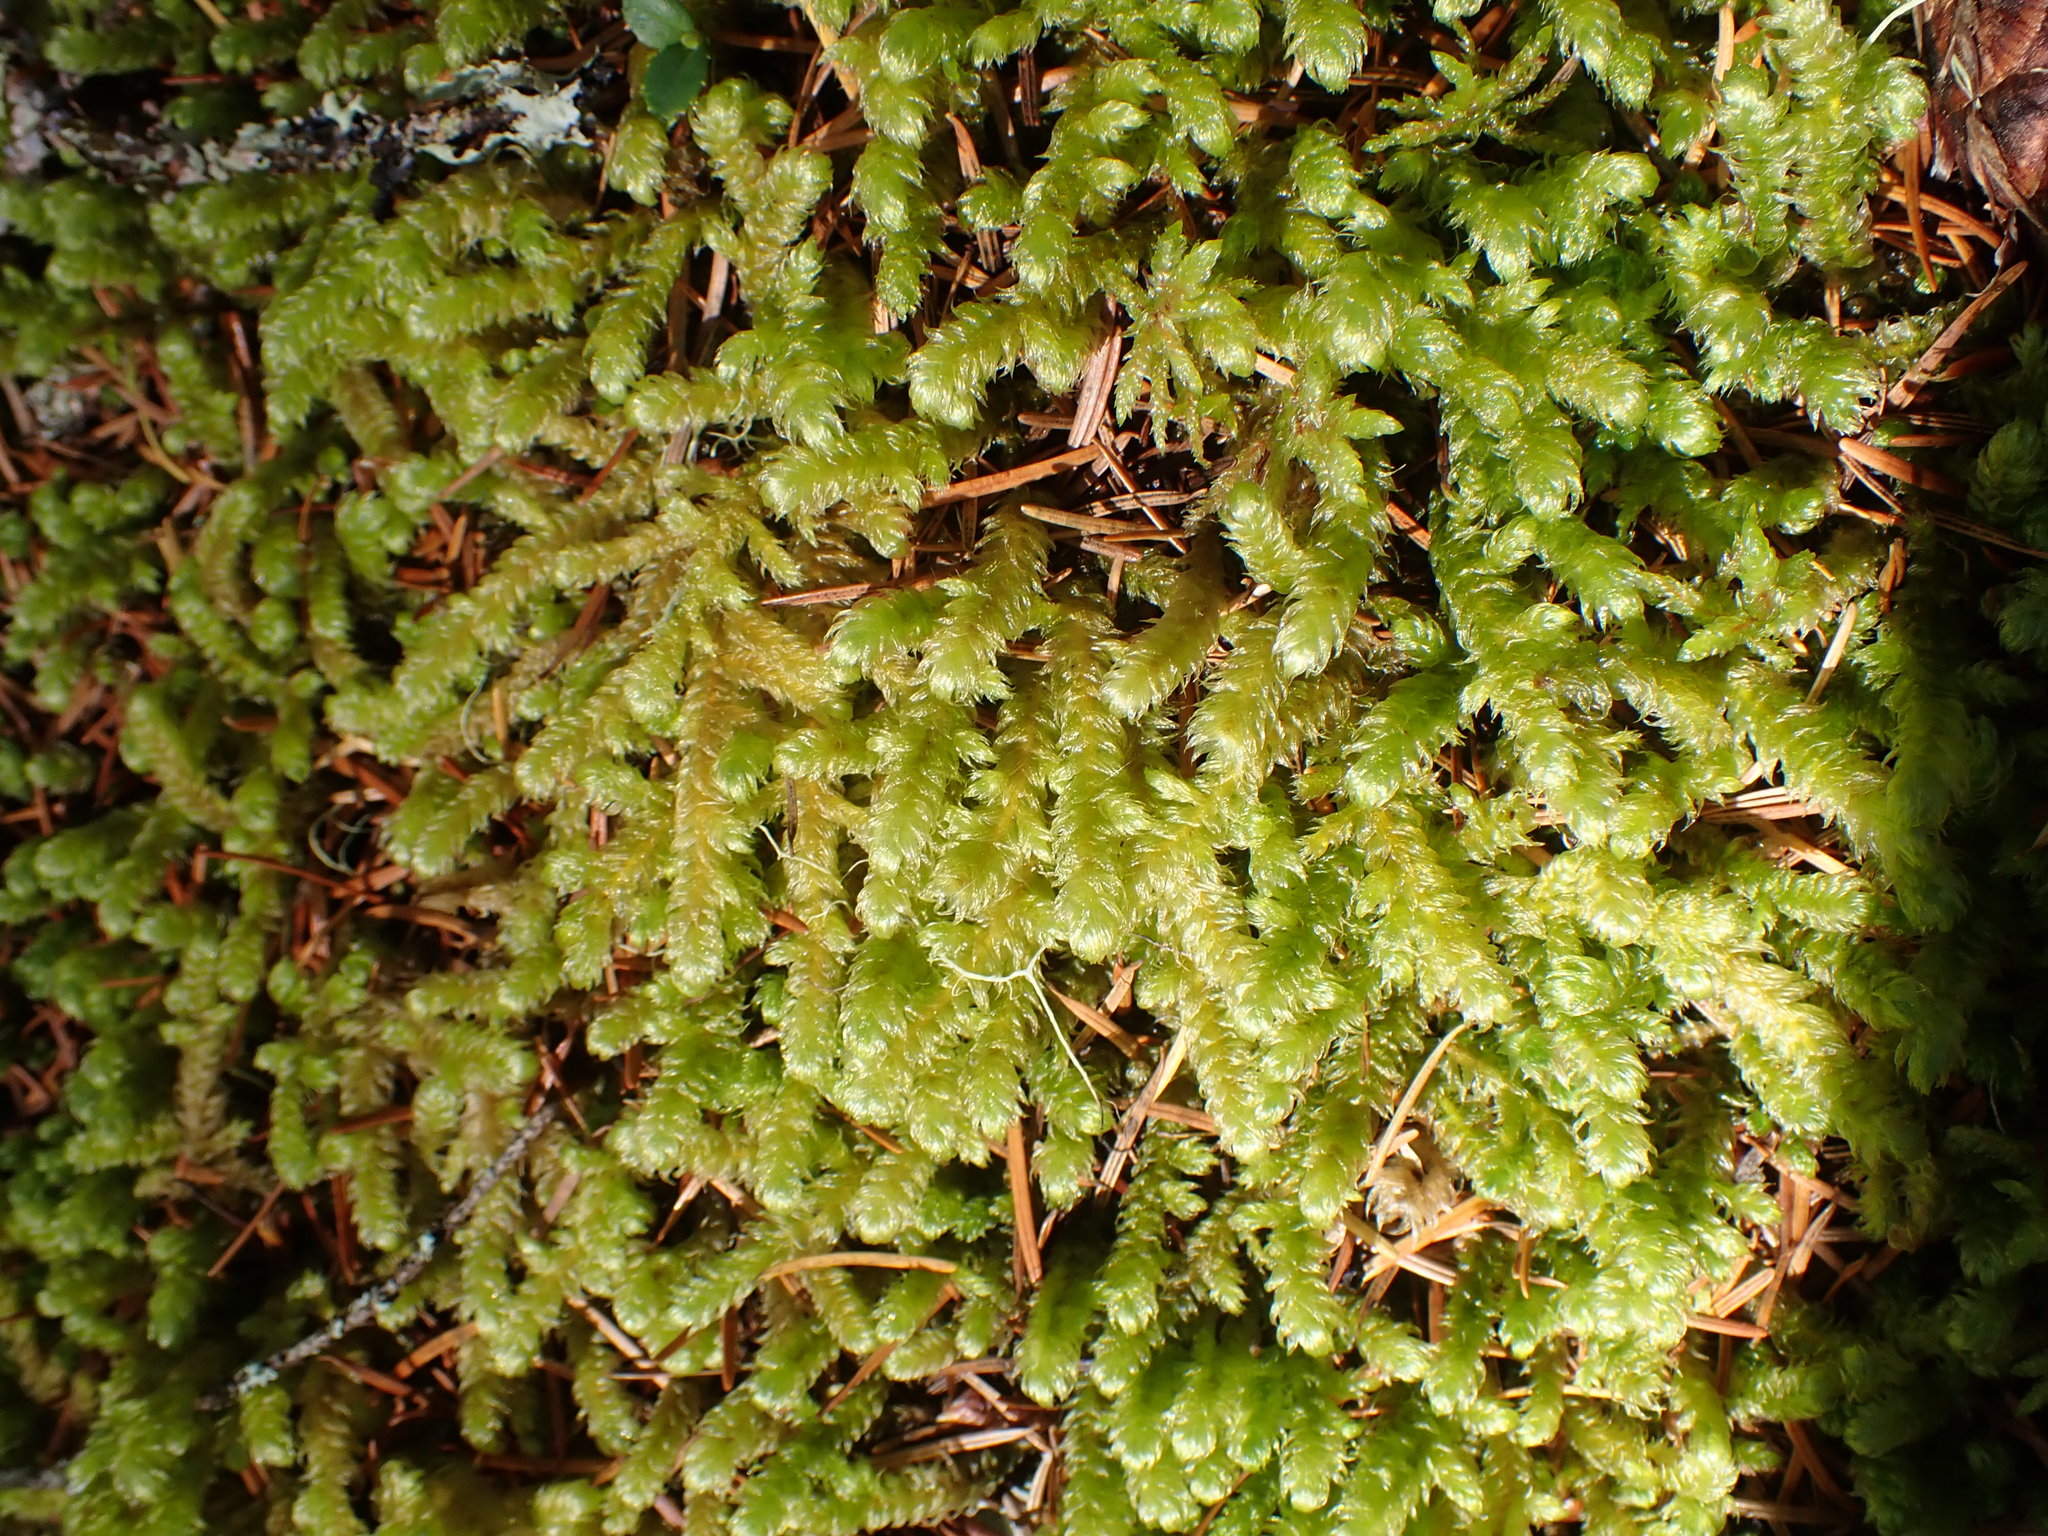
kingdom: Plantae
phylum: Bryophyta
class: Bryopsida
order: Hypnales
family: Hylocomiaceae
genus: Rhytidiopsis
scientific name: Rhytidiopsis robusta
